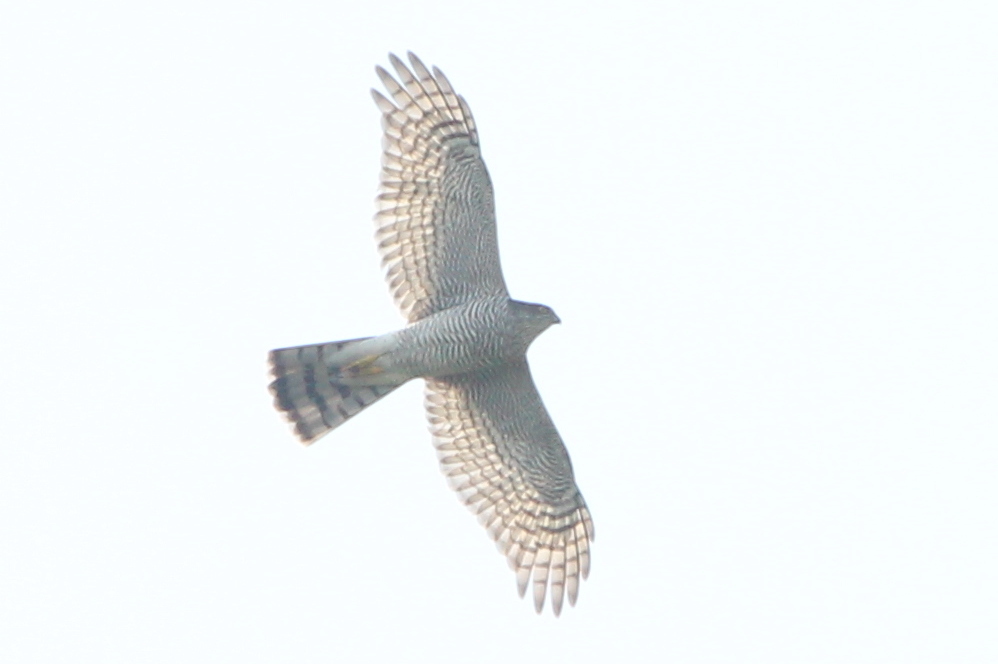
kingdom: Animalia
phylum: Chordata
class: Aves
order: Accipitriformes
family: Accipitridae
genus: Accipiter
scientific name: Accipiter nisus
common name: Eurasian sparrowhawk
